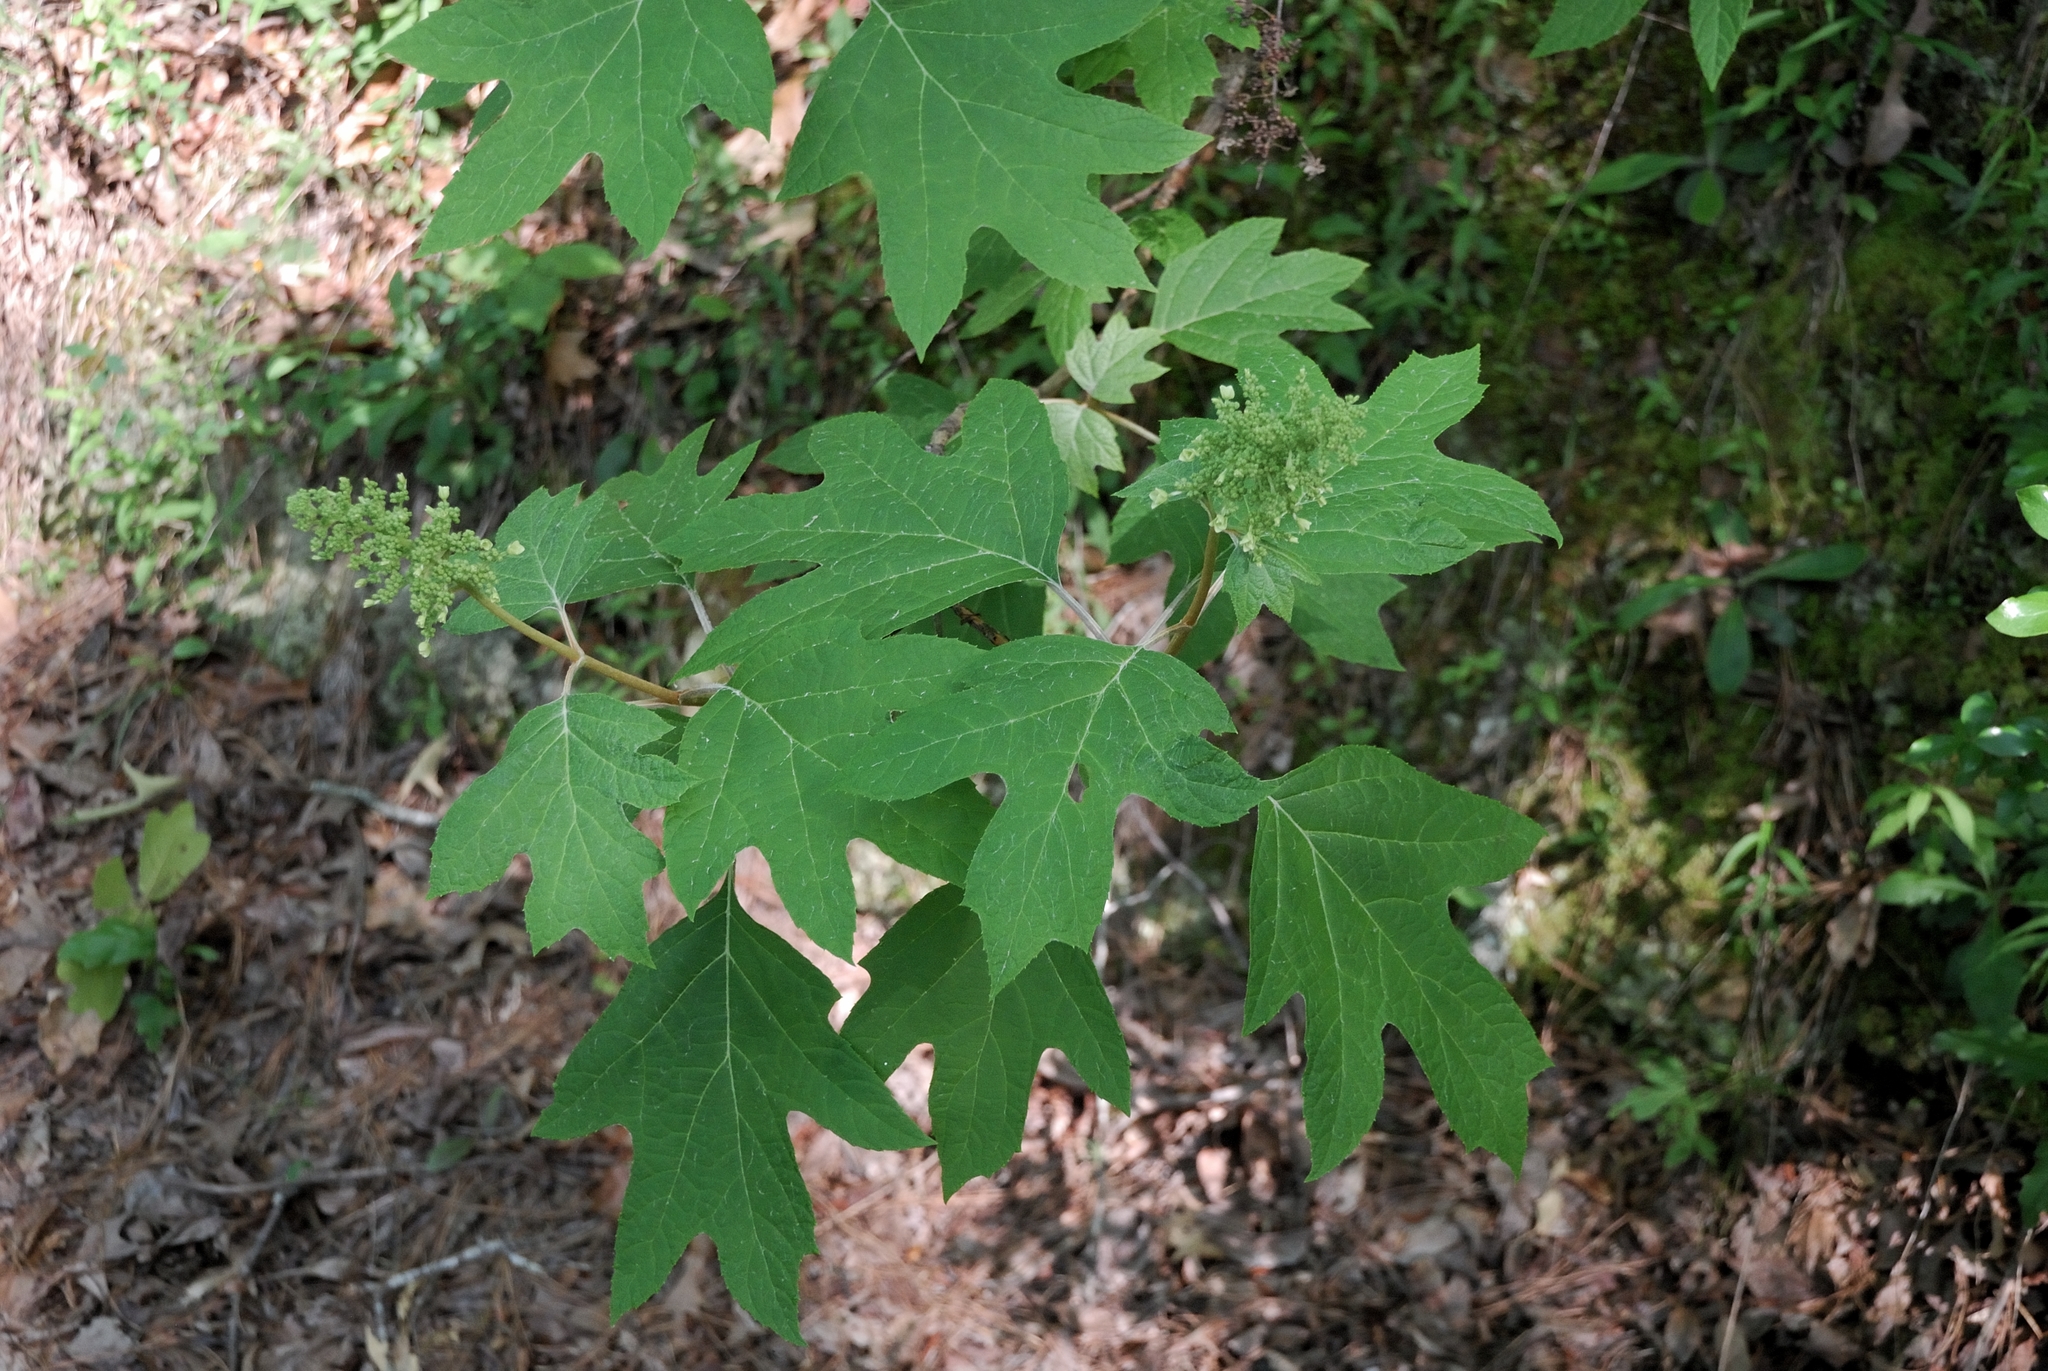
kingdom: Plantae
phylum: Tracheophyta
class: Magnoliopsida
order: Cornales
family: Hydrangeaceae
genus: Hydrangea
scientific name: Hydrangea quercifolia
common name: Oak-leaf hydrangea
